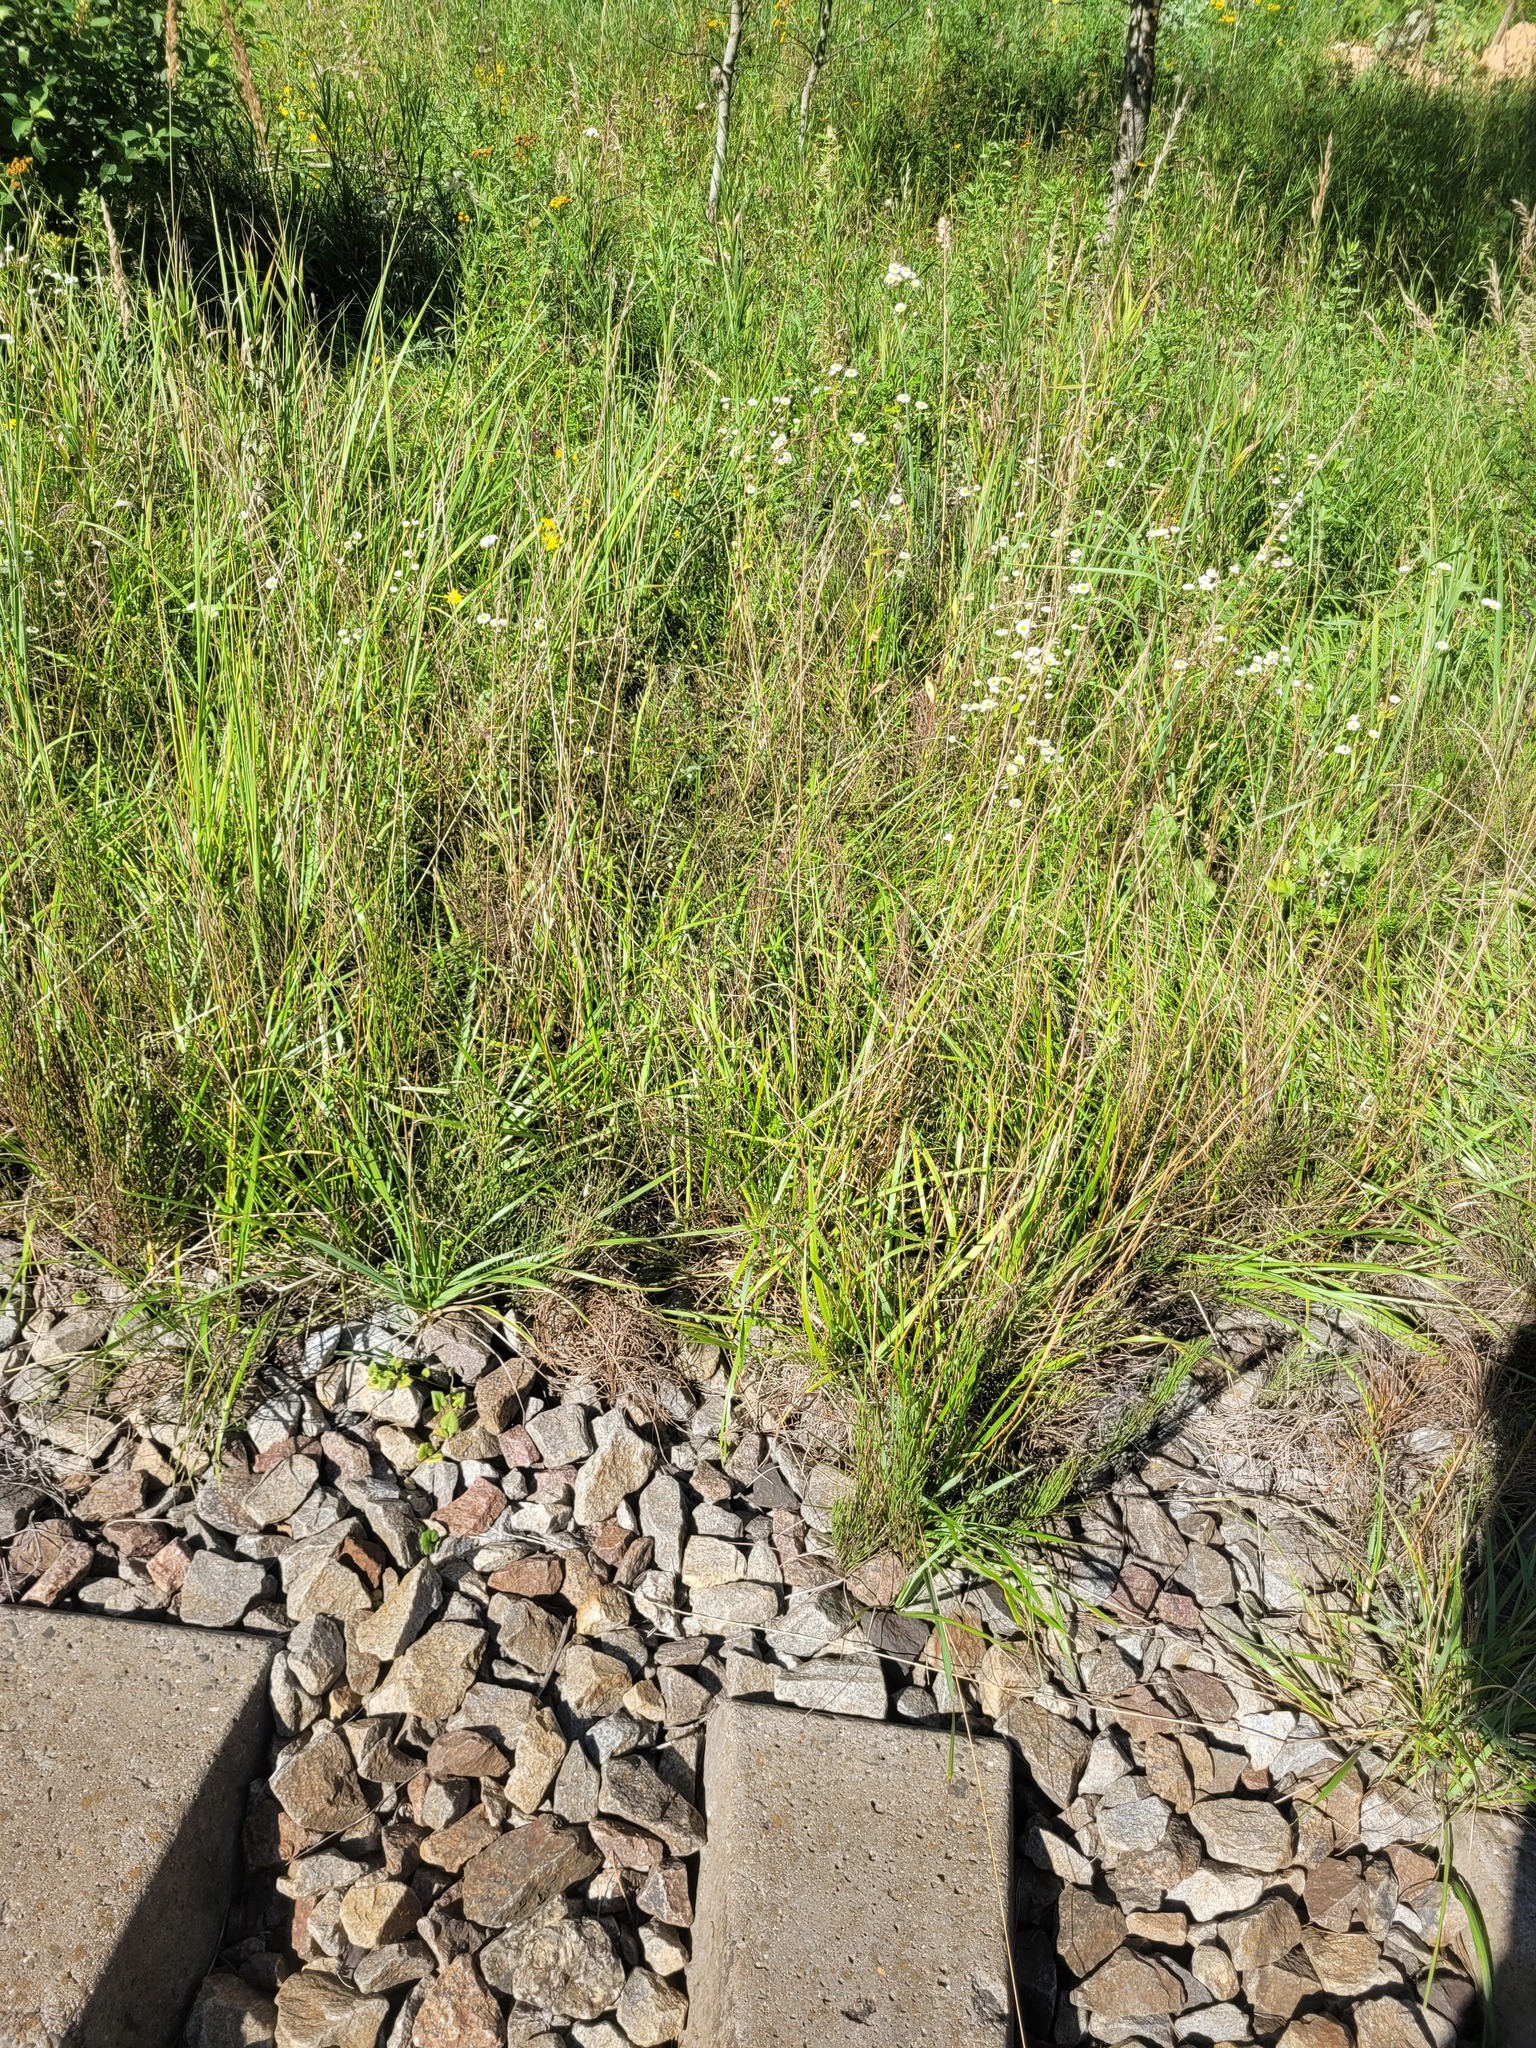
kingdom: Plantae
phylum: Tracheophyta
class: Liliopsida
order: Poales
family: Poaceae
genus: Lolium
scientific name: Lolium pratense
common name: Dover grass
